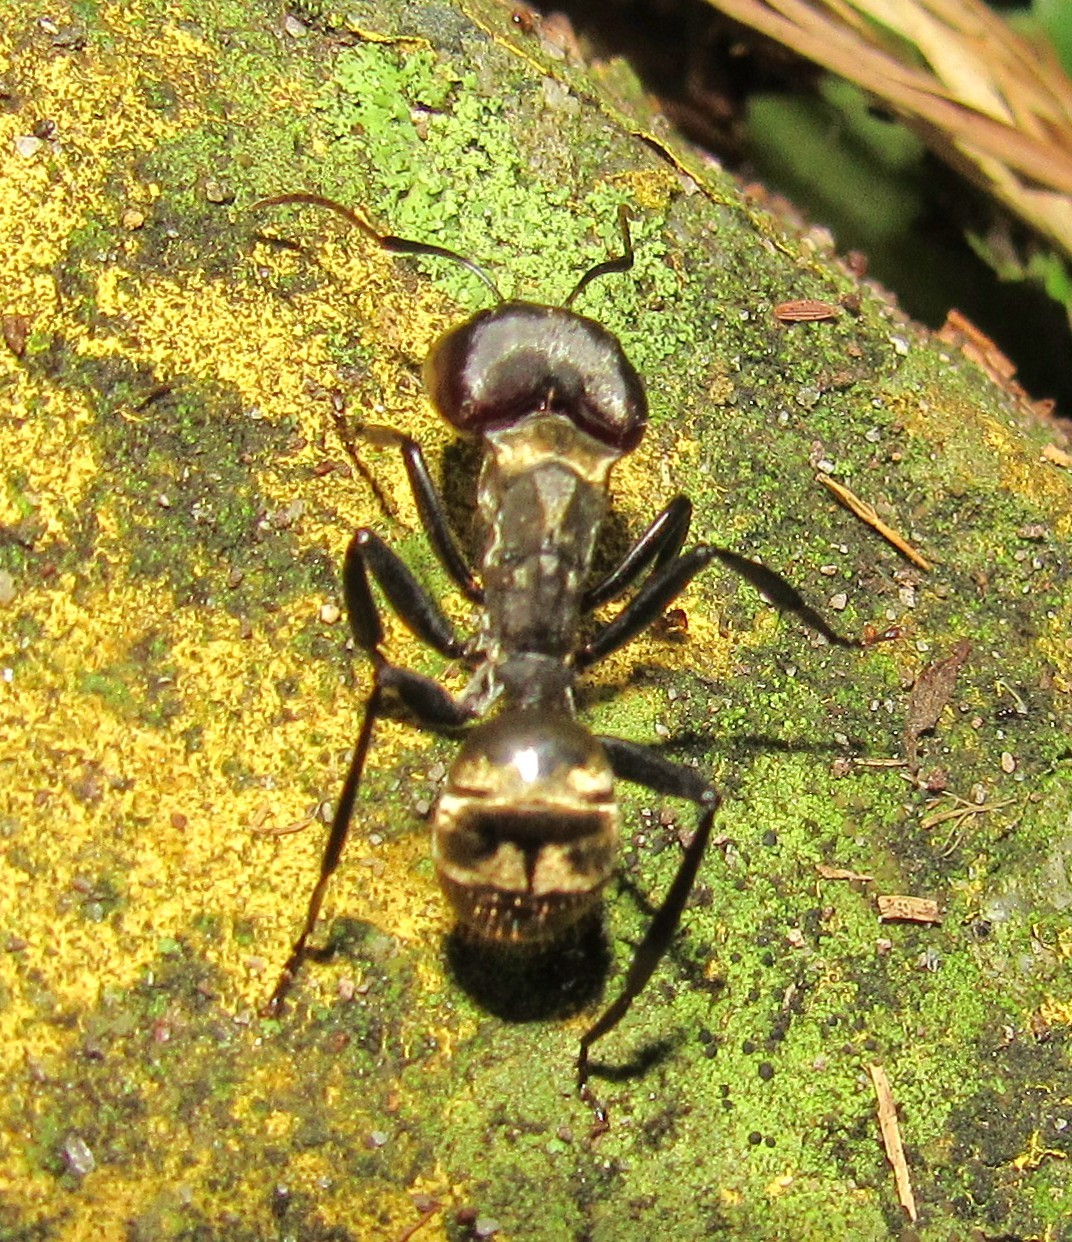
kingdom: Animalia
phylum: Arthropoda
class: Insecta
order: Hymenoptera
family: Formicidae
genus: Camponotus
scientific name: Camponotus sericeiventris
